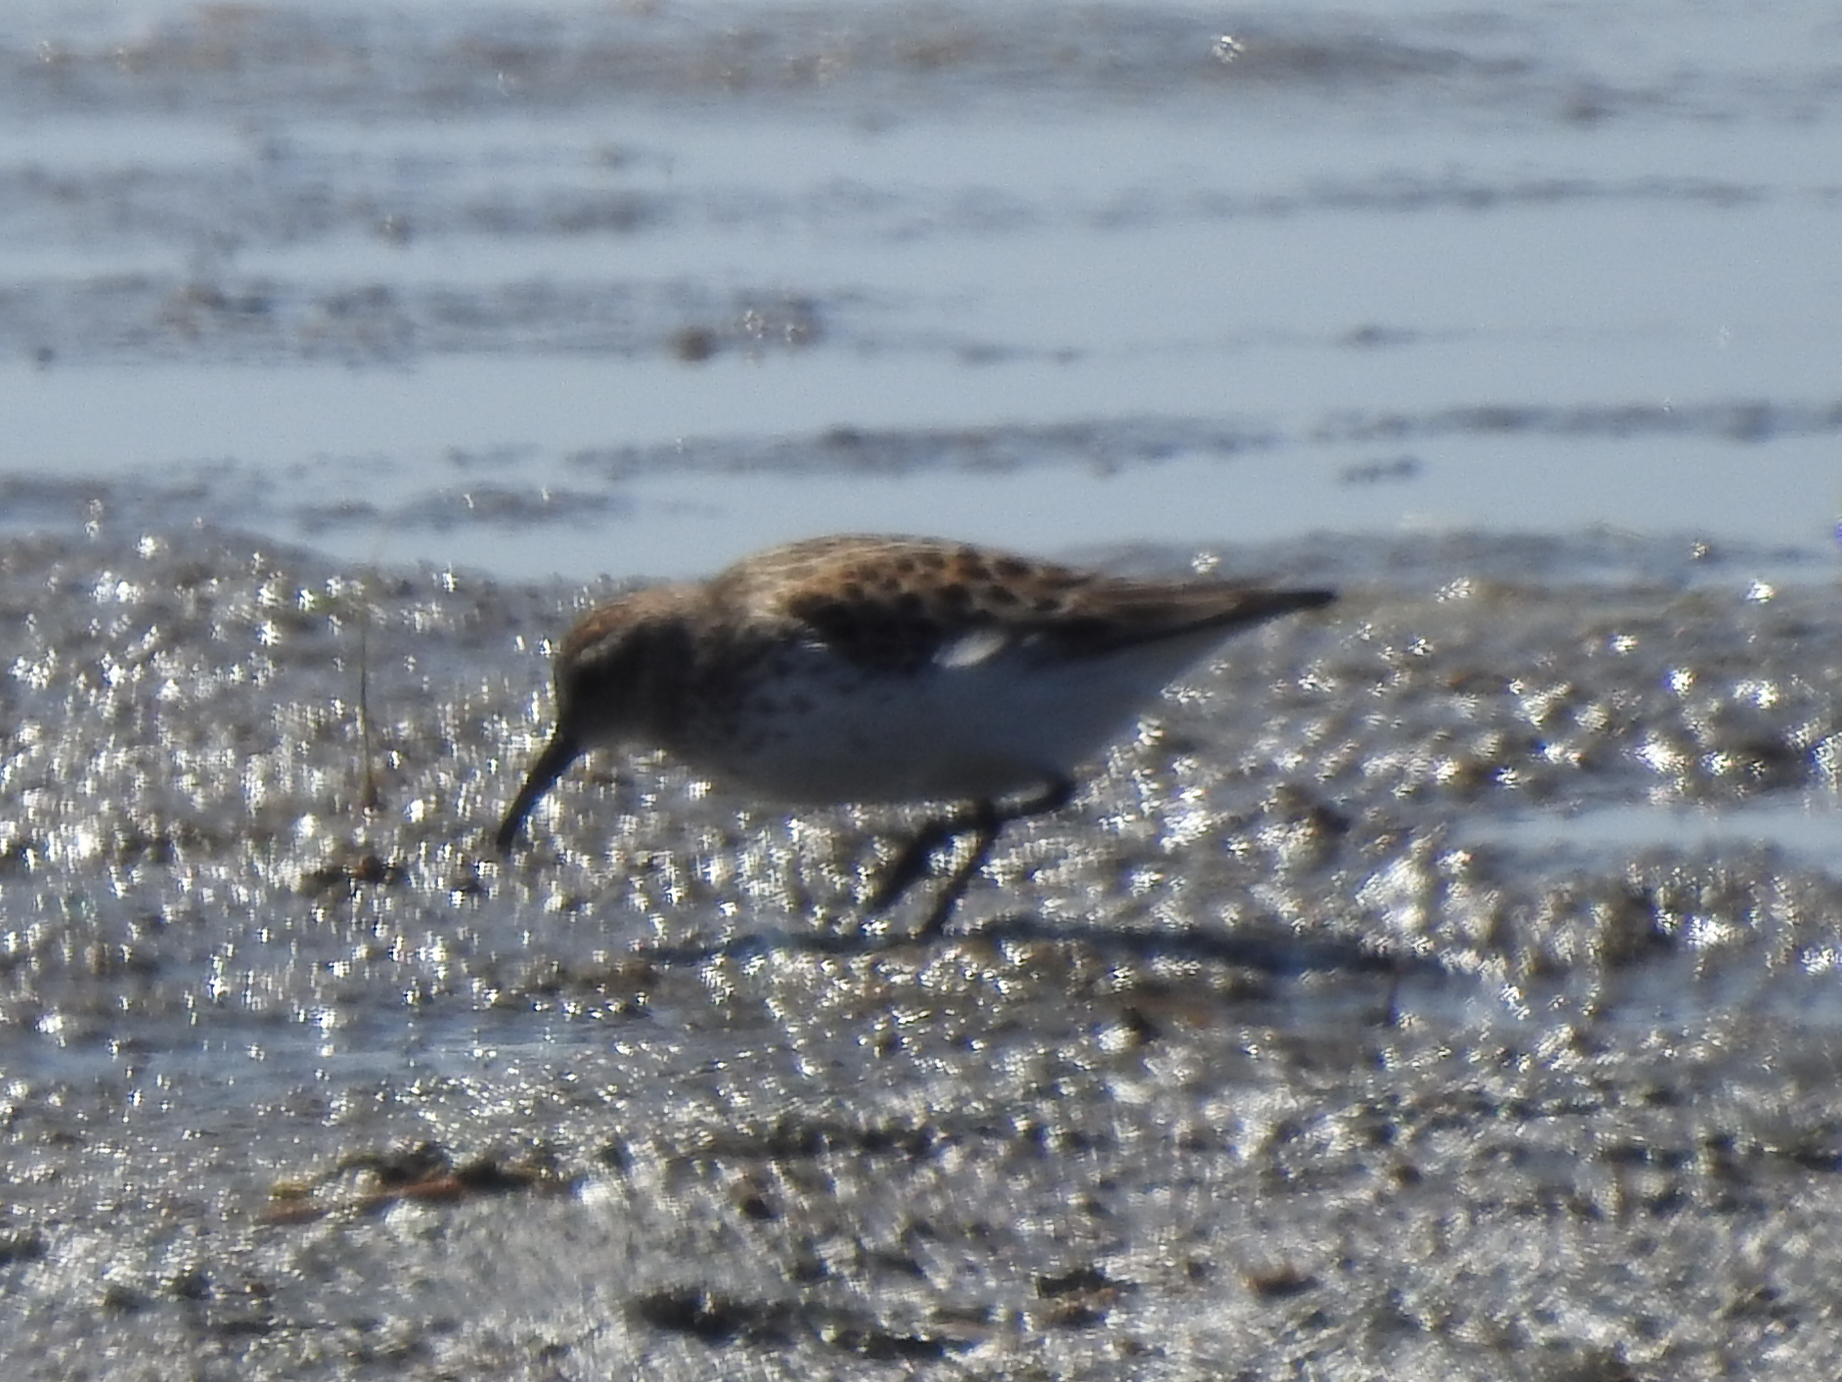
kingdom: Animalia
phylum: Chordata
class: Aves
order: Charadriiformes
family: Scolopacidae
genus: Calidris
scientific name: Calidris minutilla
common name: Least sandpiper
